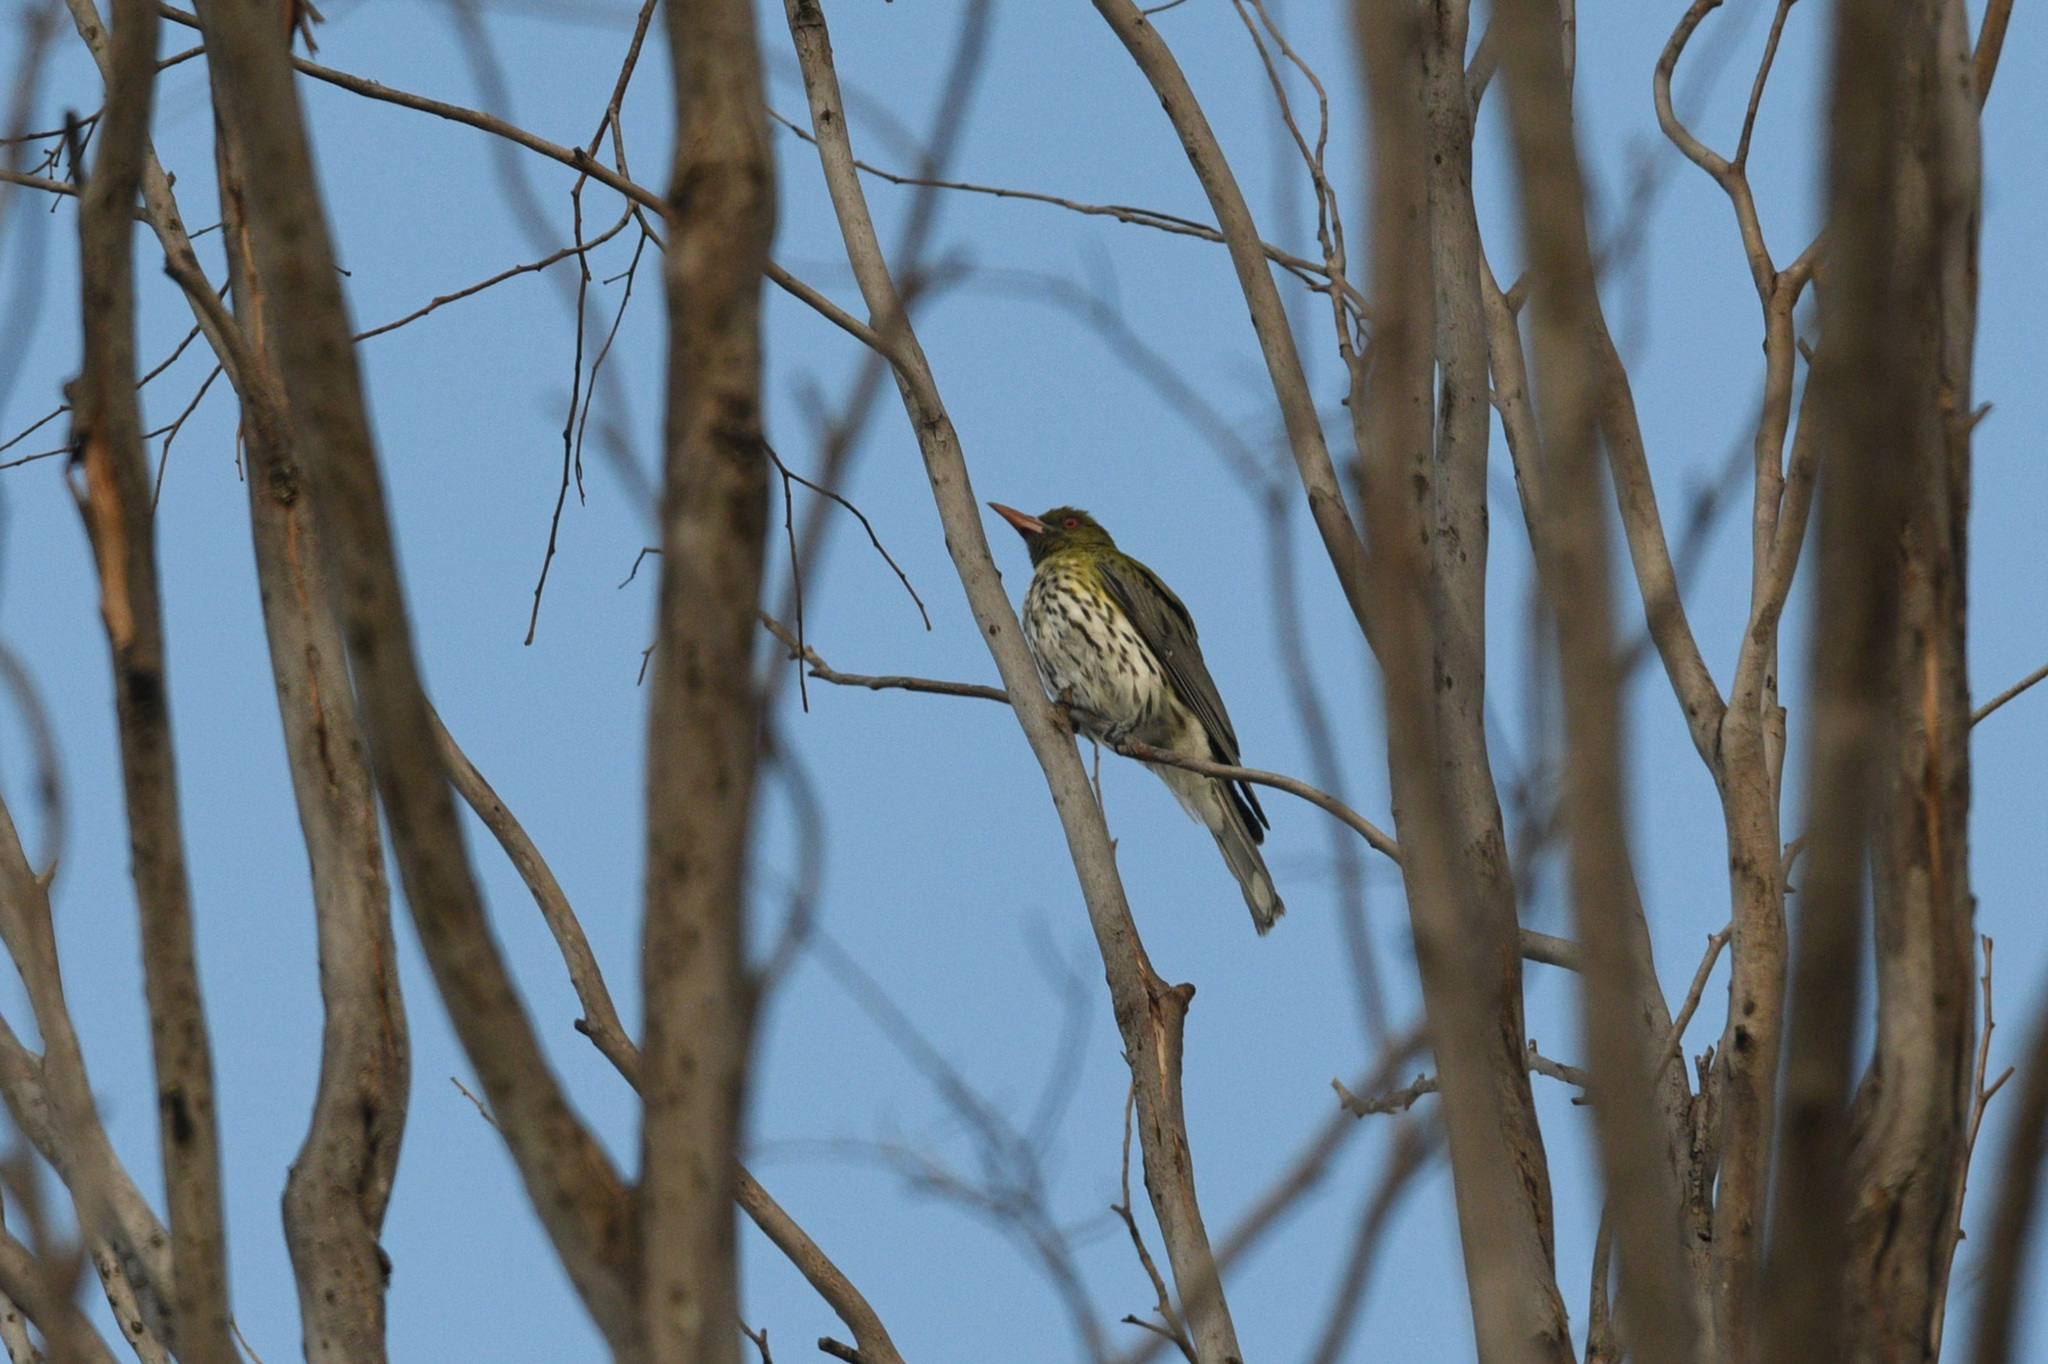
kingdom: Animalia
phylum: Chordata
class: Aves
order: Passeriformes
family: Oriolidae
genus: Oriolus
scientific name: Oriolus sagittatus
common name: Olive-backed oriole
